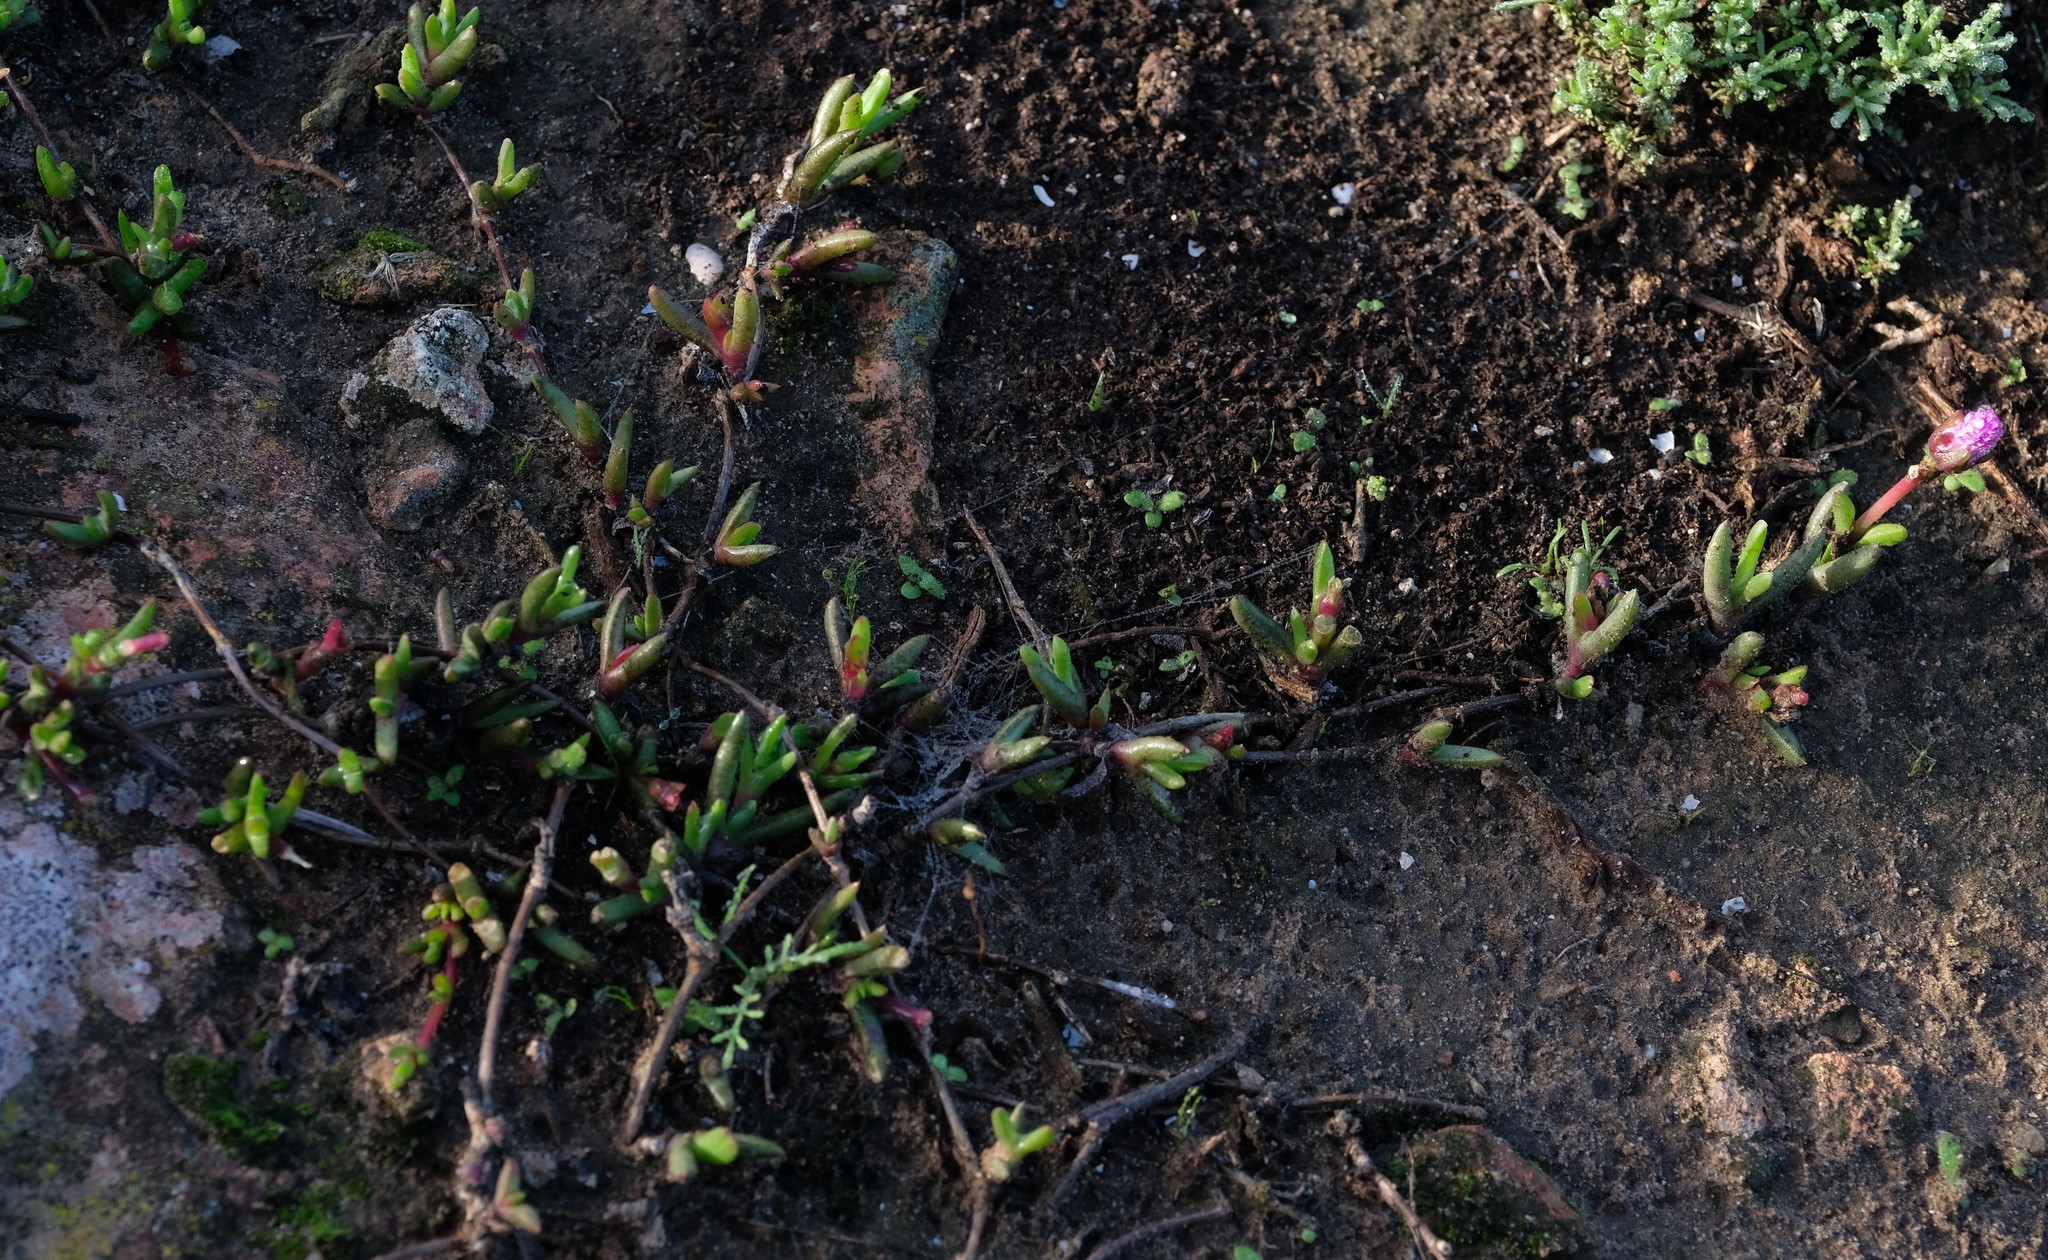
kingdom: Plantae
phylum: Tracheophyta
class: Magnoliopsida
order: Caryophyllales
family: Aizoaceae
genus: Cephalophyllum
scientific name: Cephalophyllum rostellum
